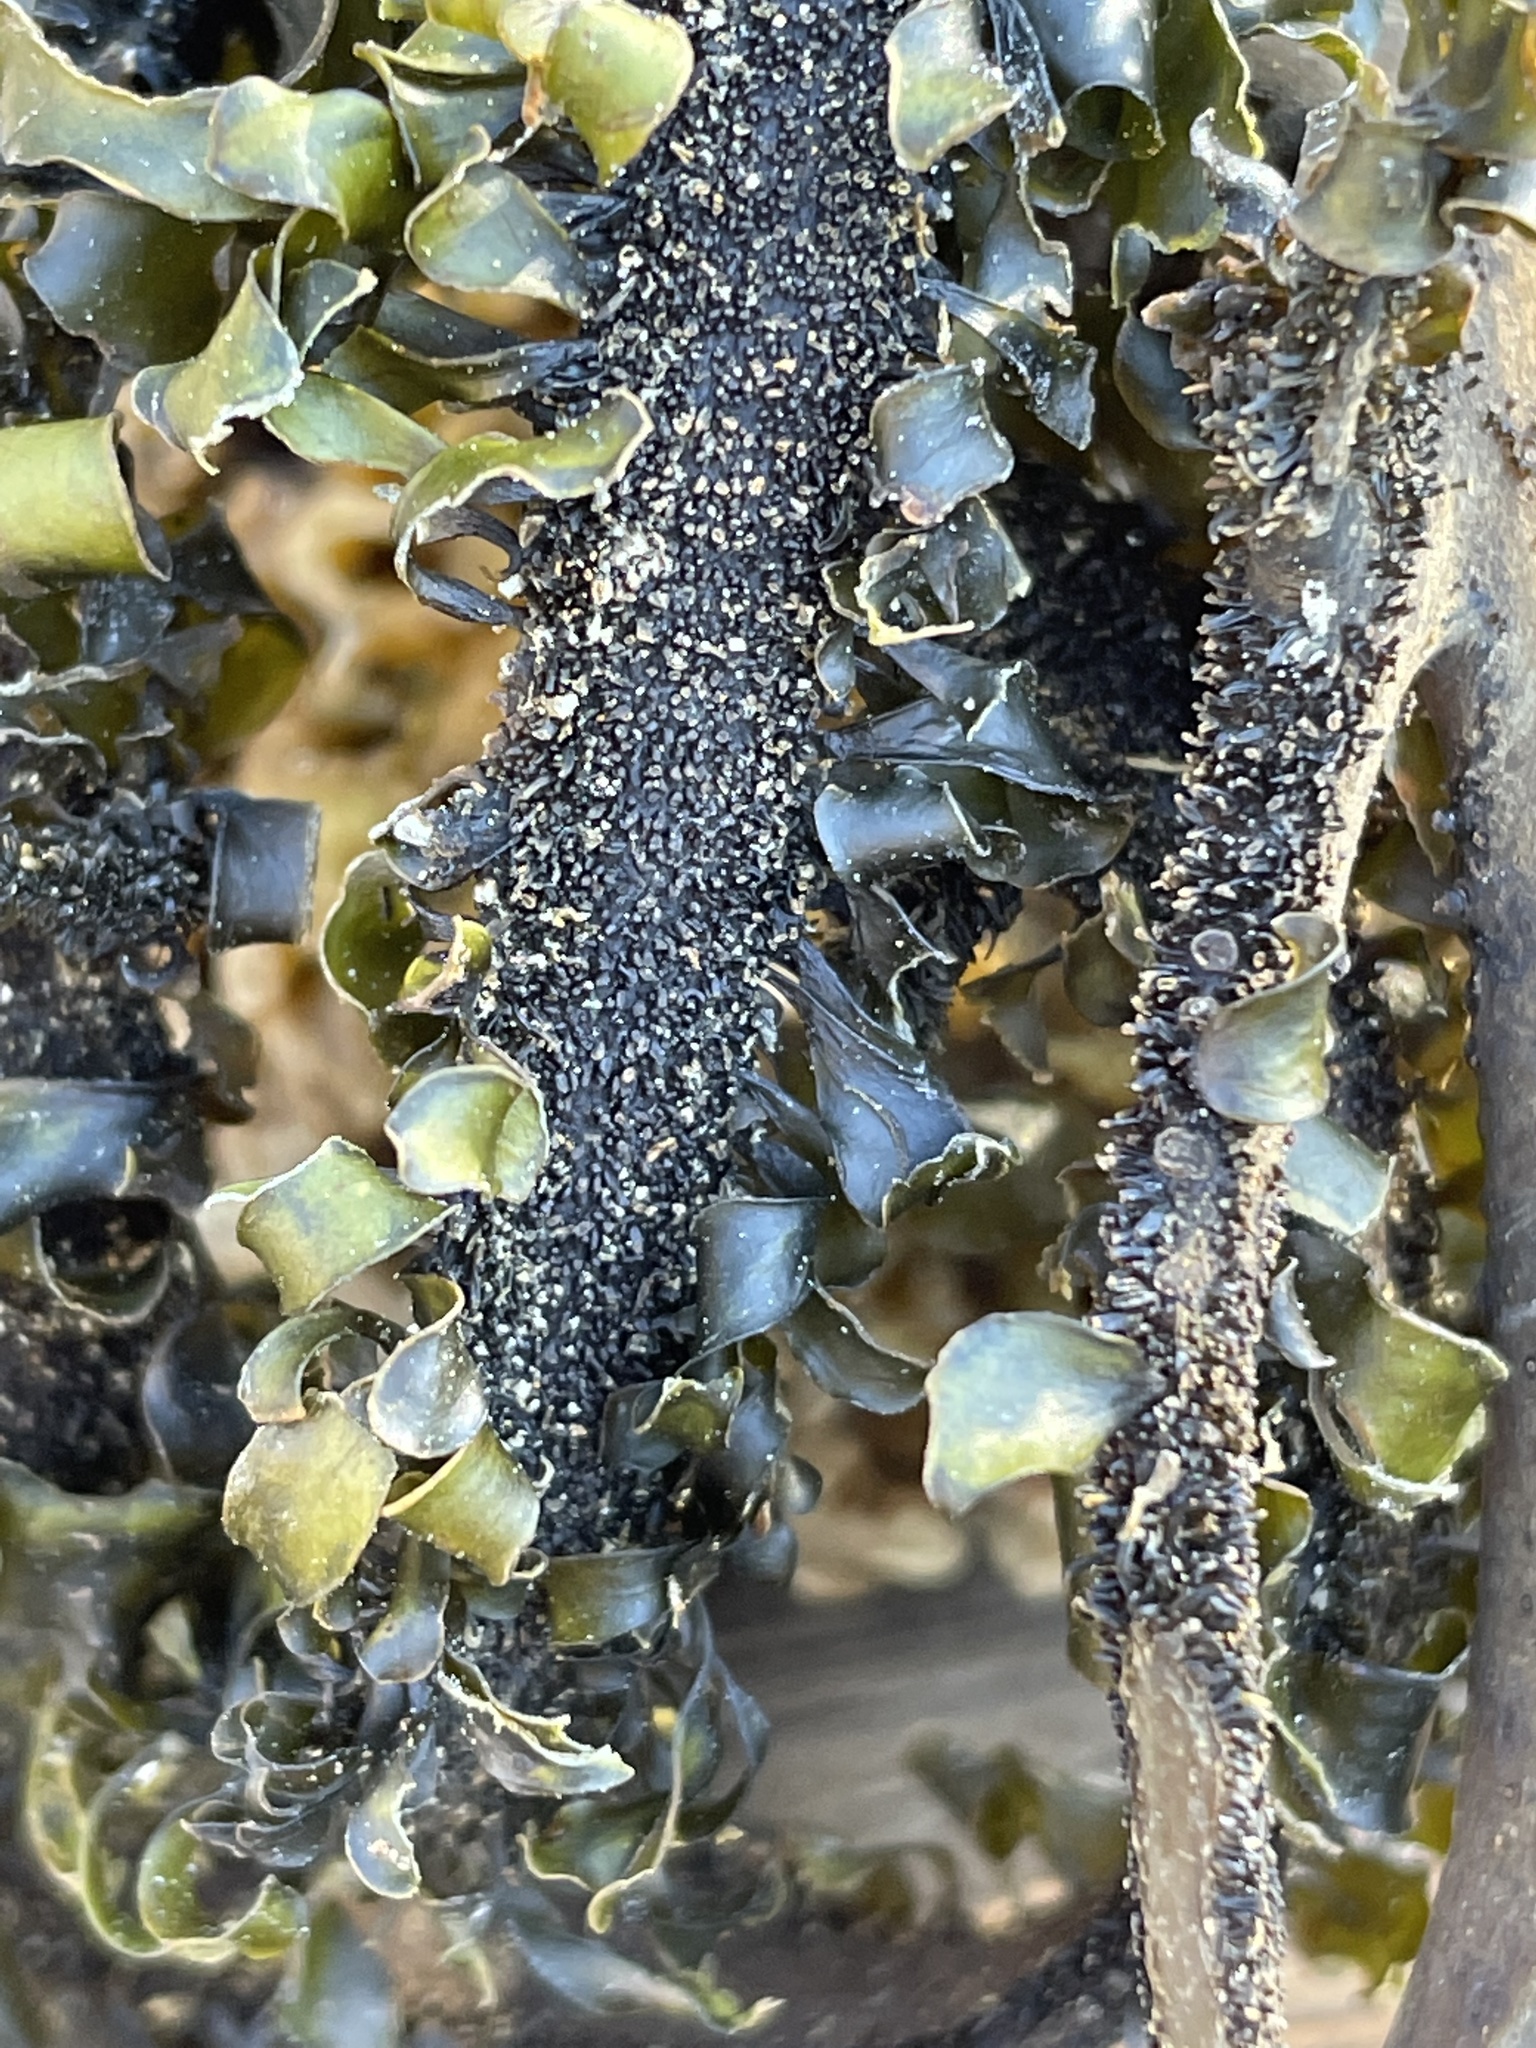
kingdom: Chromista
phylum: Ochrophyta
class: Phaeophyceae
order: Laminariales
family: Lessoniaceae
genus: Egregia
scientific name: Egregia menziesii
